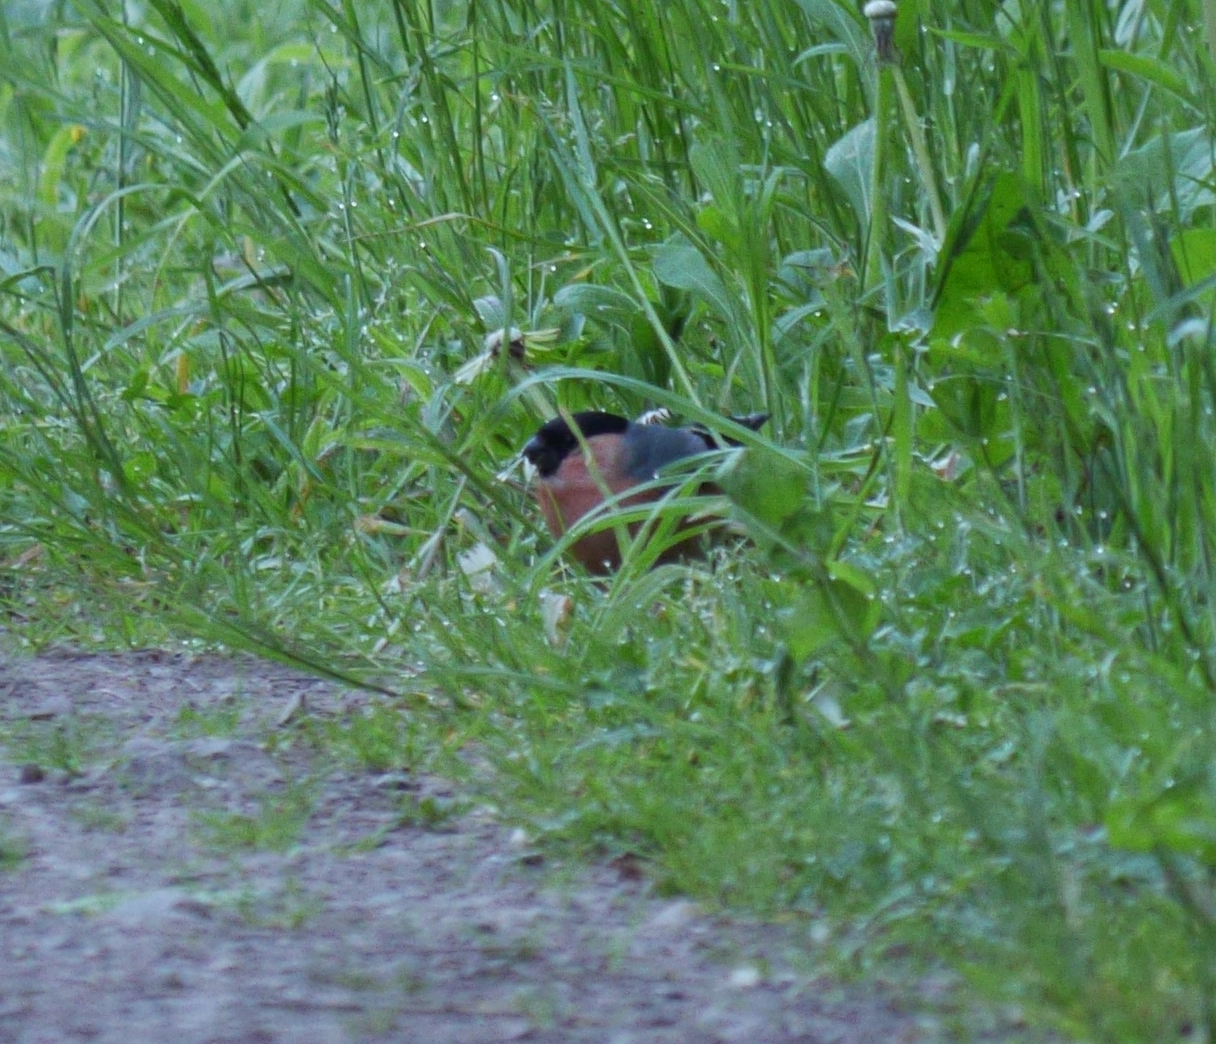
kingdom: Animalia
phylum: Chordata
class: Aves
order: Passeriformes
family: Fringillidae
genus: Pyrrhula
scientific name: Pyrrhula pyrrhula
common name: Eurasian bullfinch
